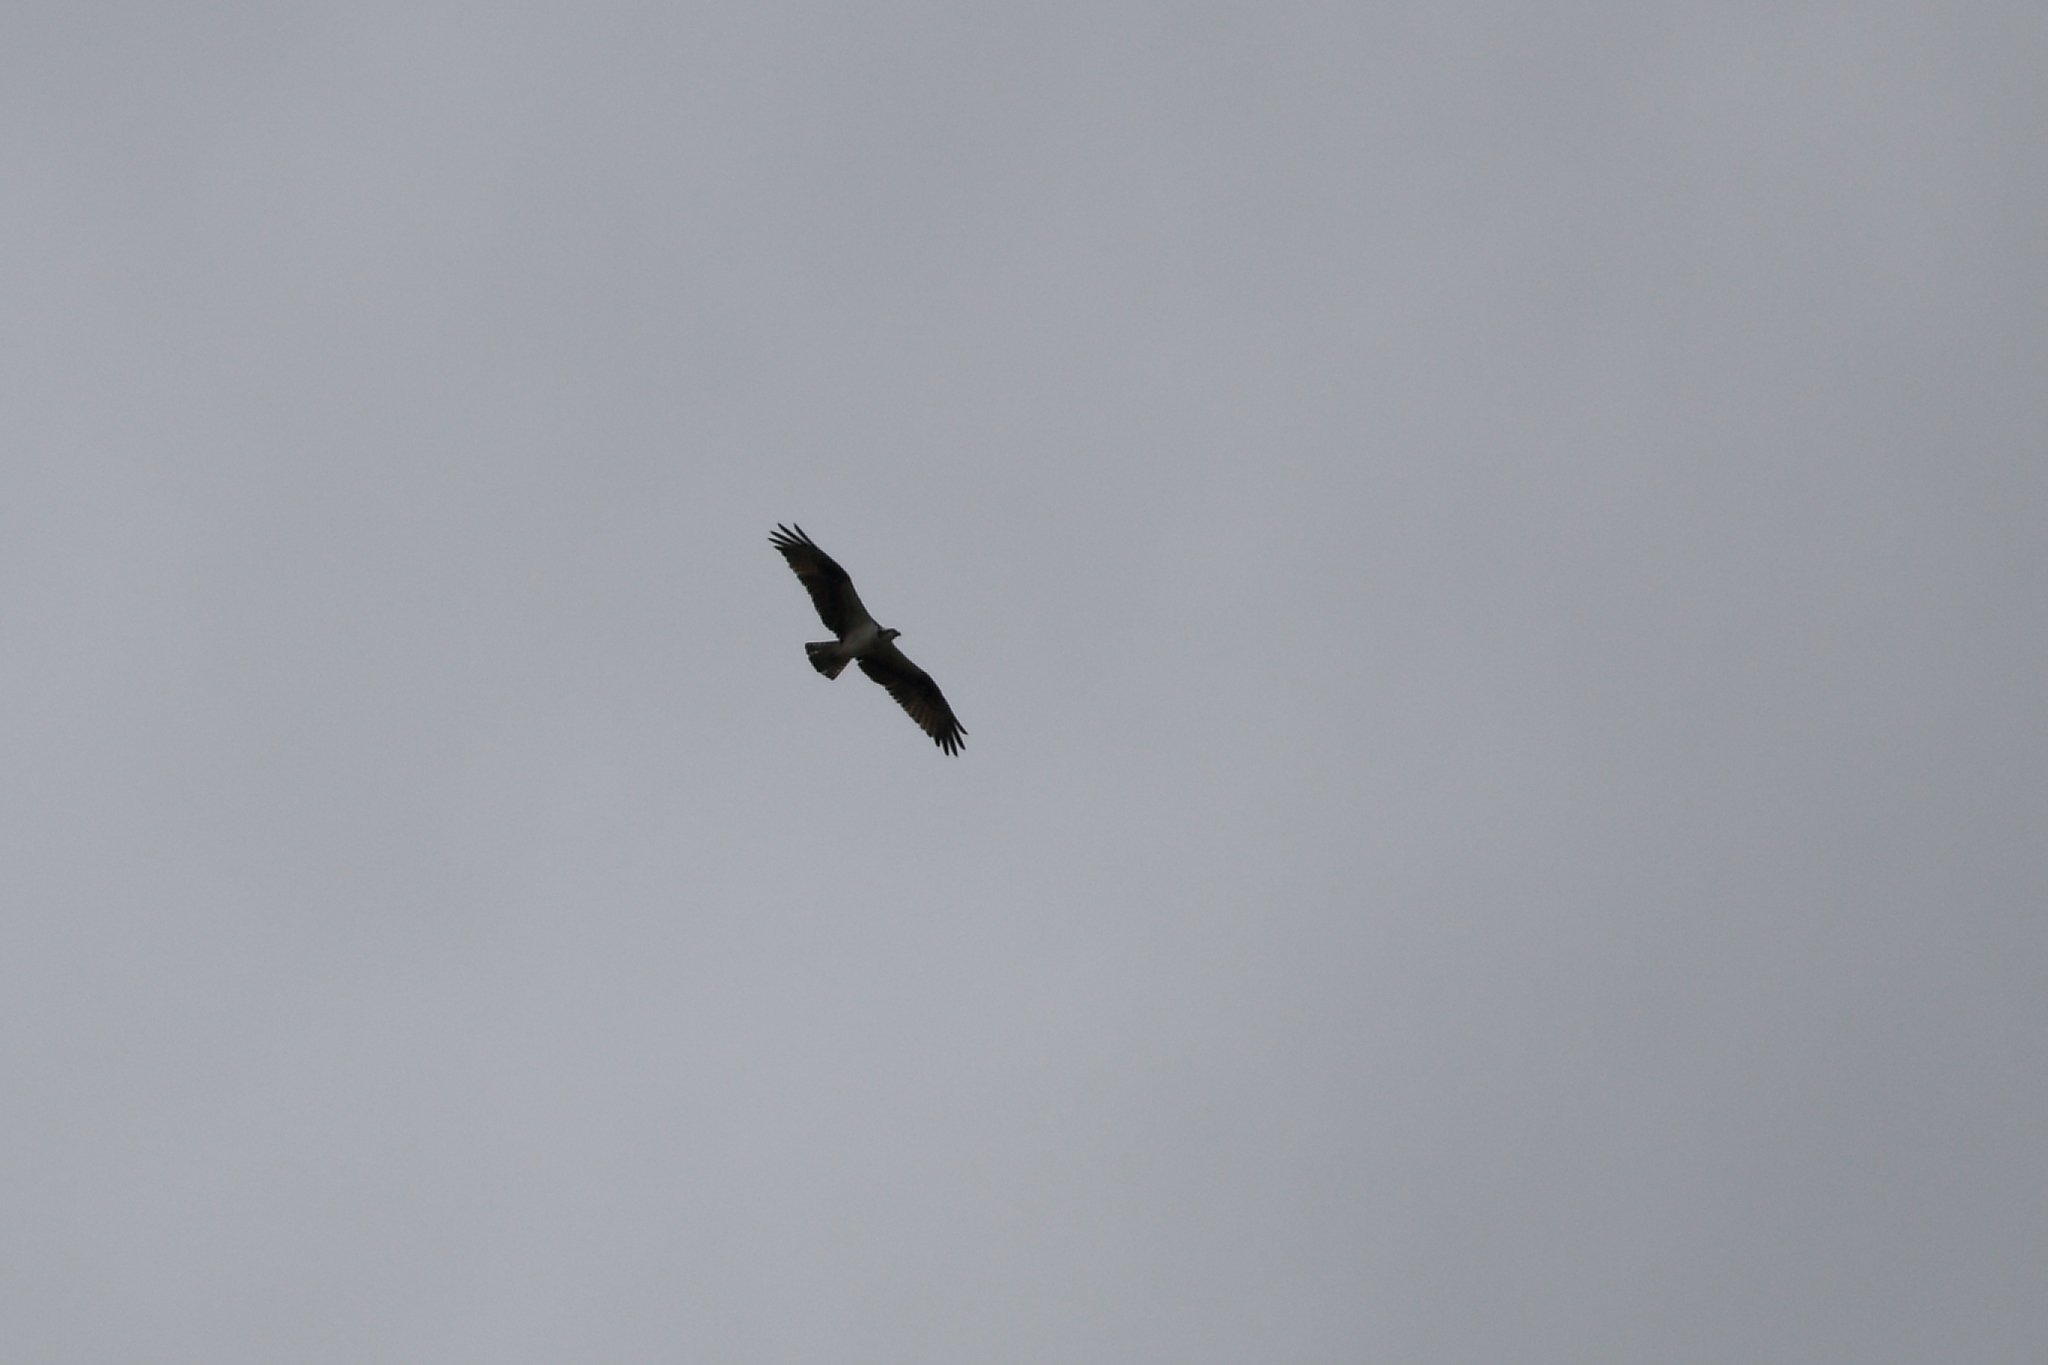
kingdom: Animalia
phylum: Chordata
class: Aves
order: Accipitriformes
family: Pandionidae
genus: Pandion
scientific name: Pandion haliaetus
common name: Osprey
